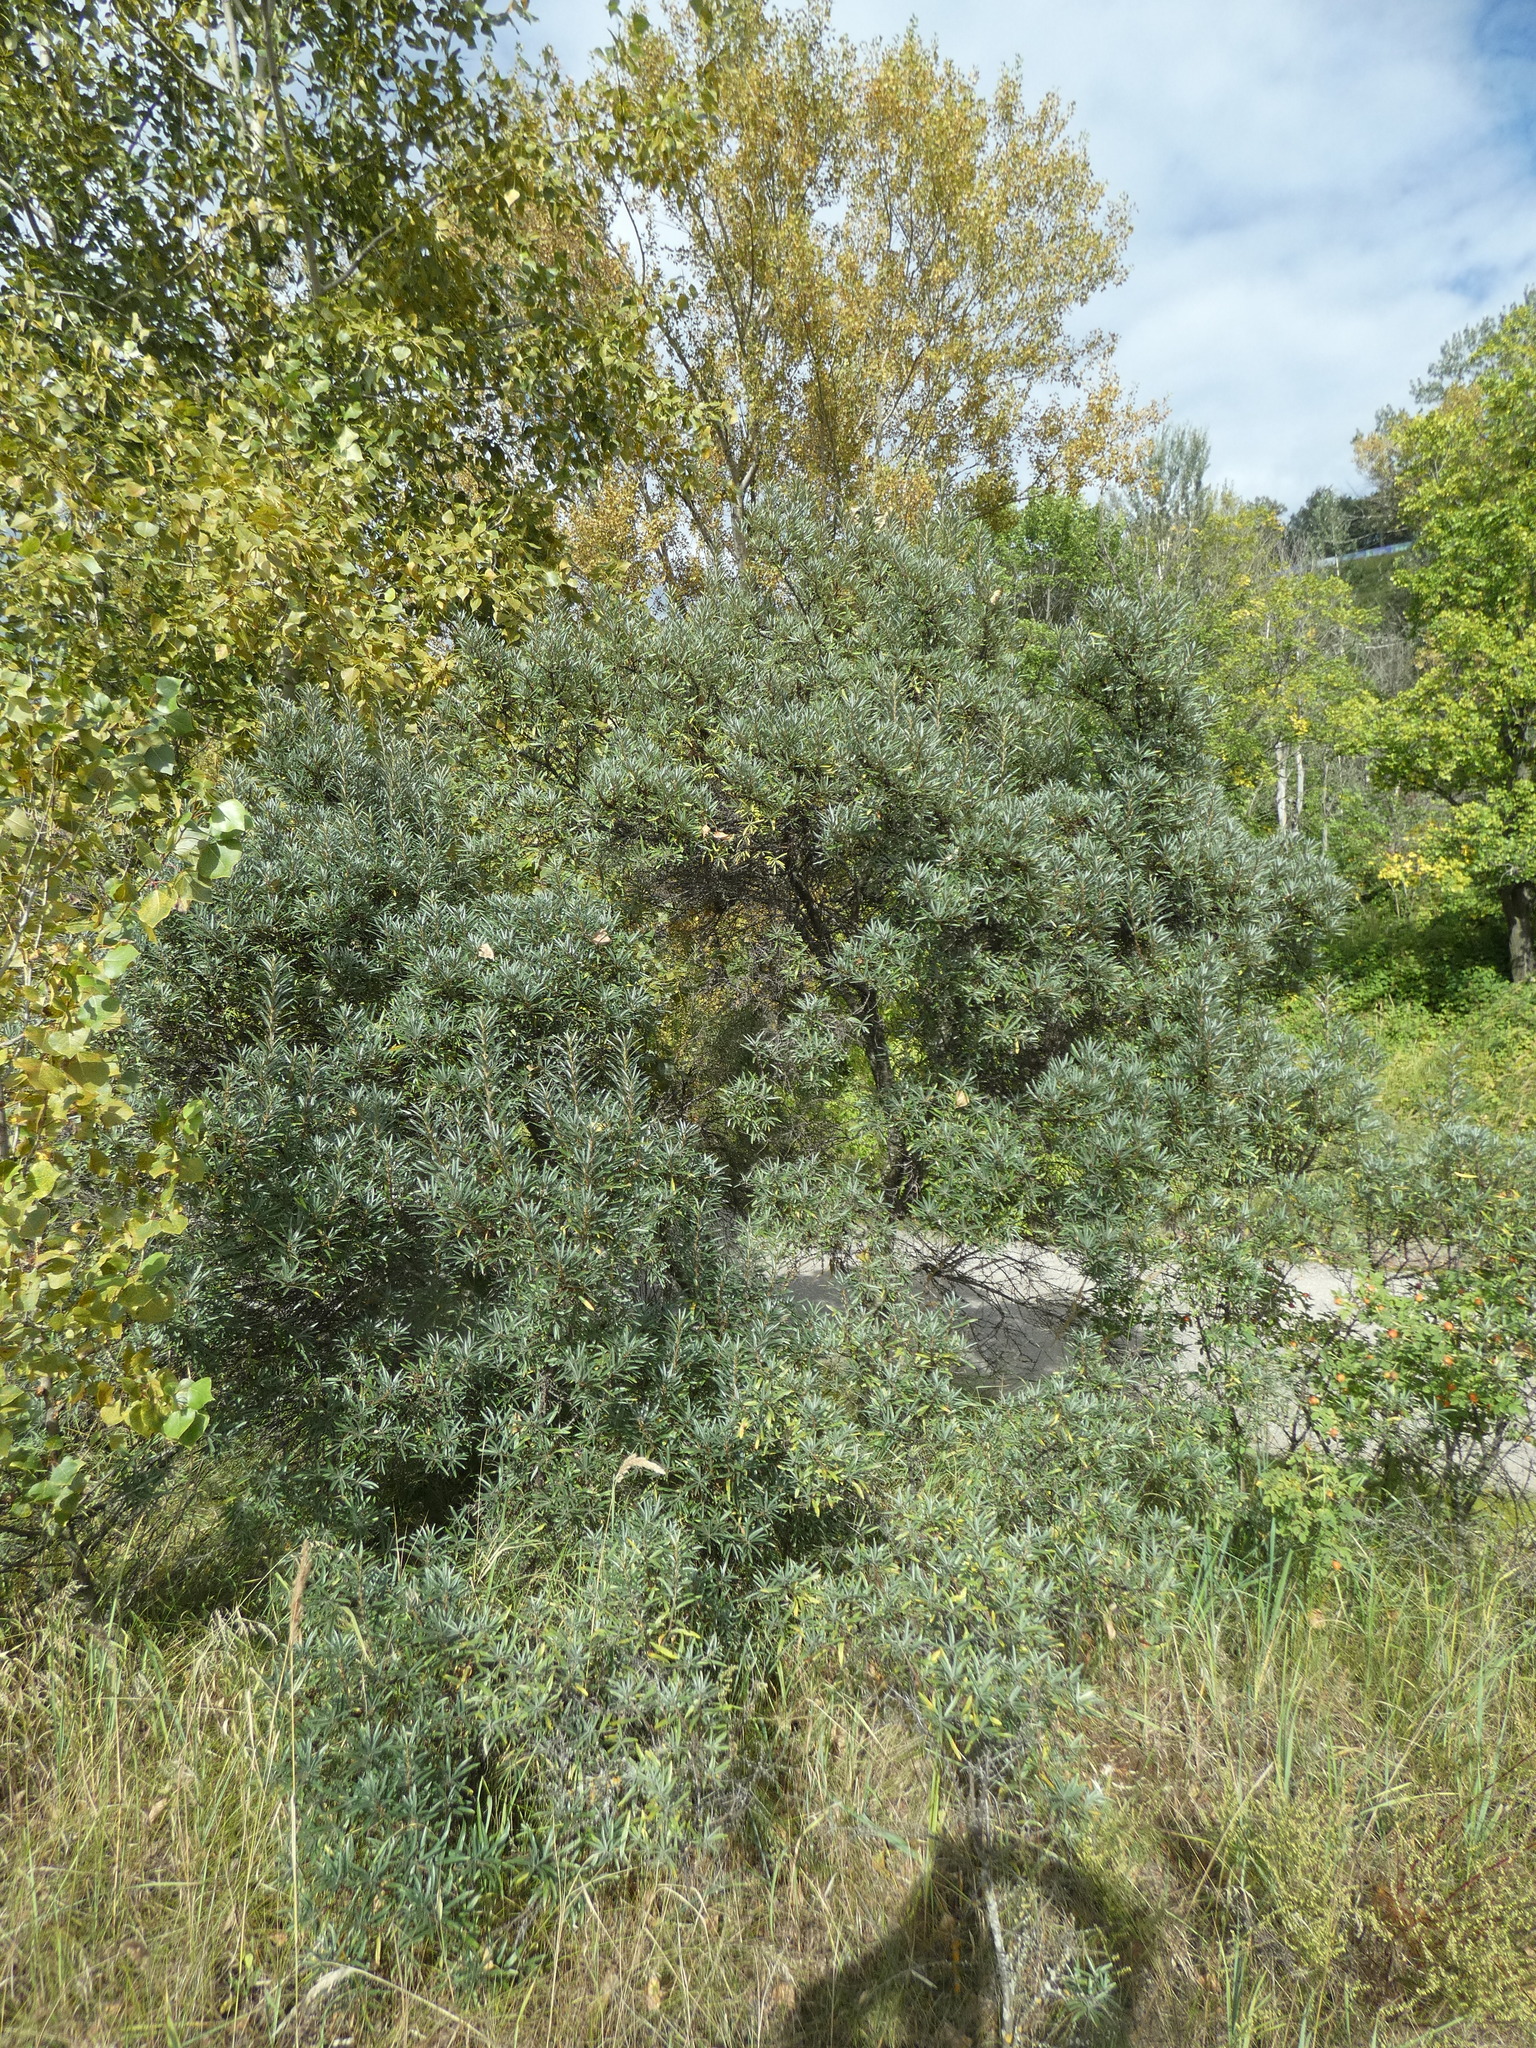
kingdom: Plantae
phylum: Tracheophyta
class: Magnoliopsida
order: Rosales
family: Elaeagnaceae
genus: Hippophae
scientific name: Hippophae rhamnoides
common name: Sea-buckthorn
